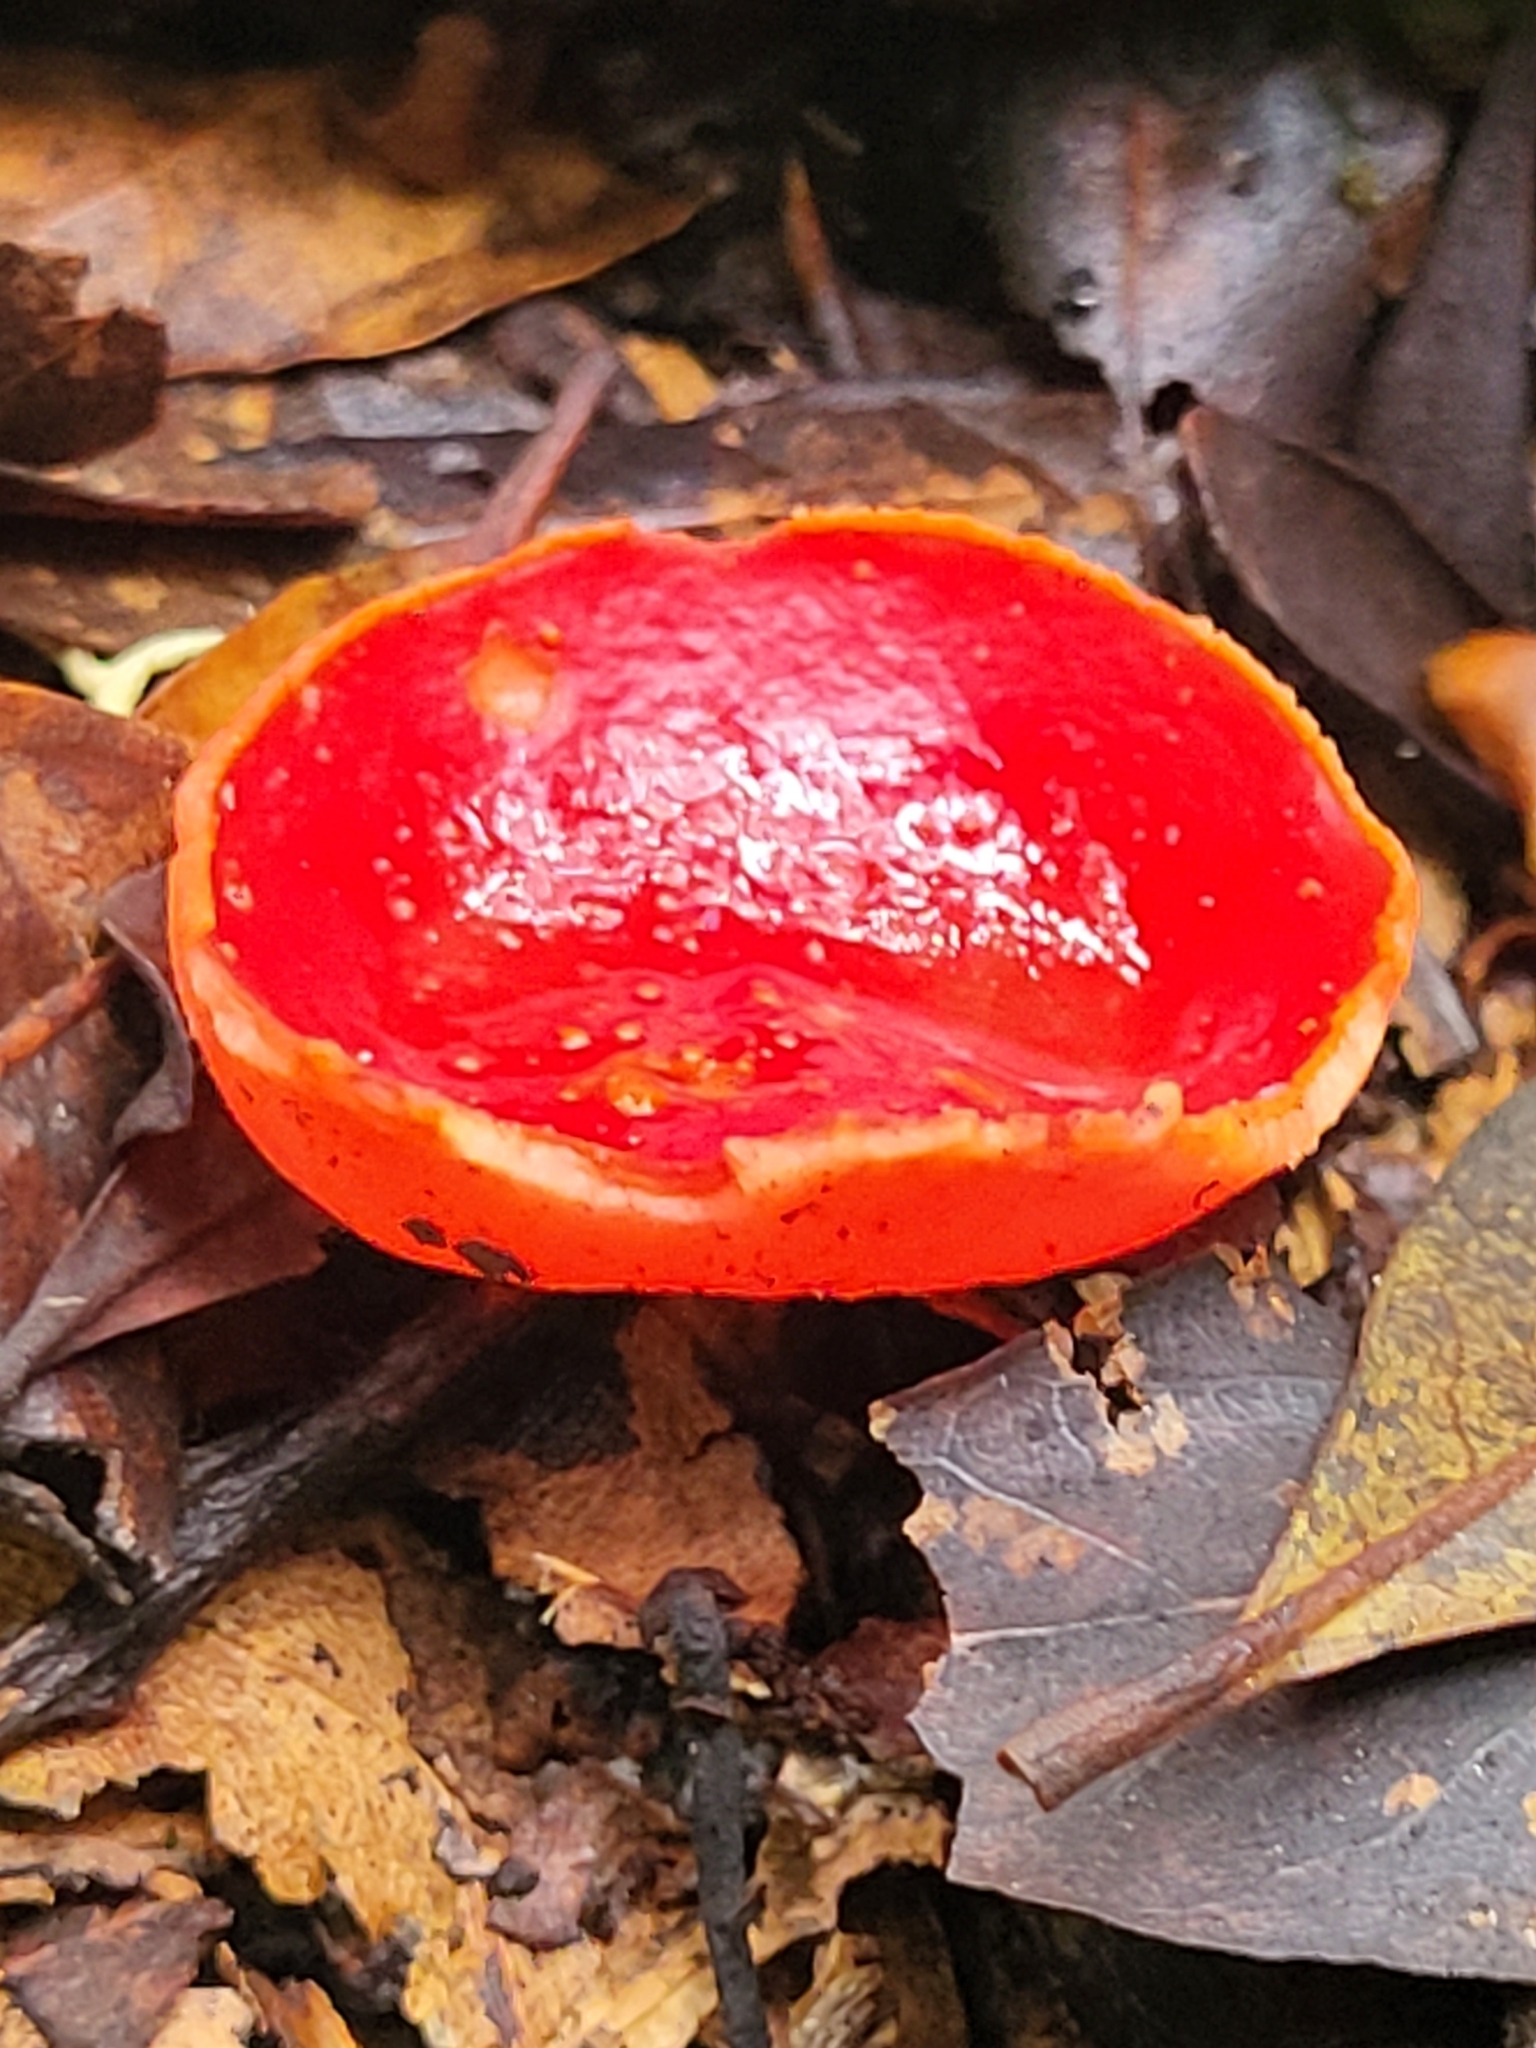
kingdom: Fungi
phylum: Ascomycota
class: Pezizomycetes
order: Pezizales
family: Sarcoscyphaceae
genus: Sarcoscypha
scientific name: Sarcoscypha macaronesica
